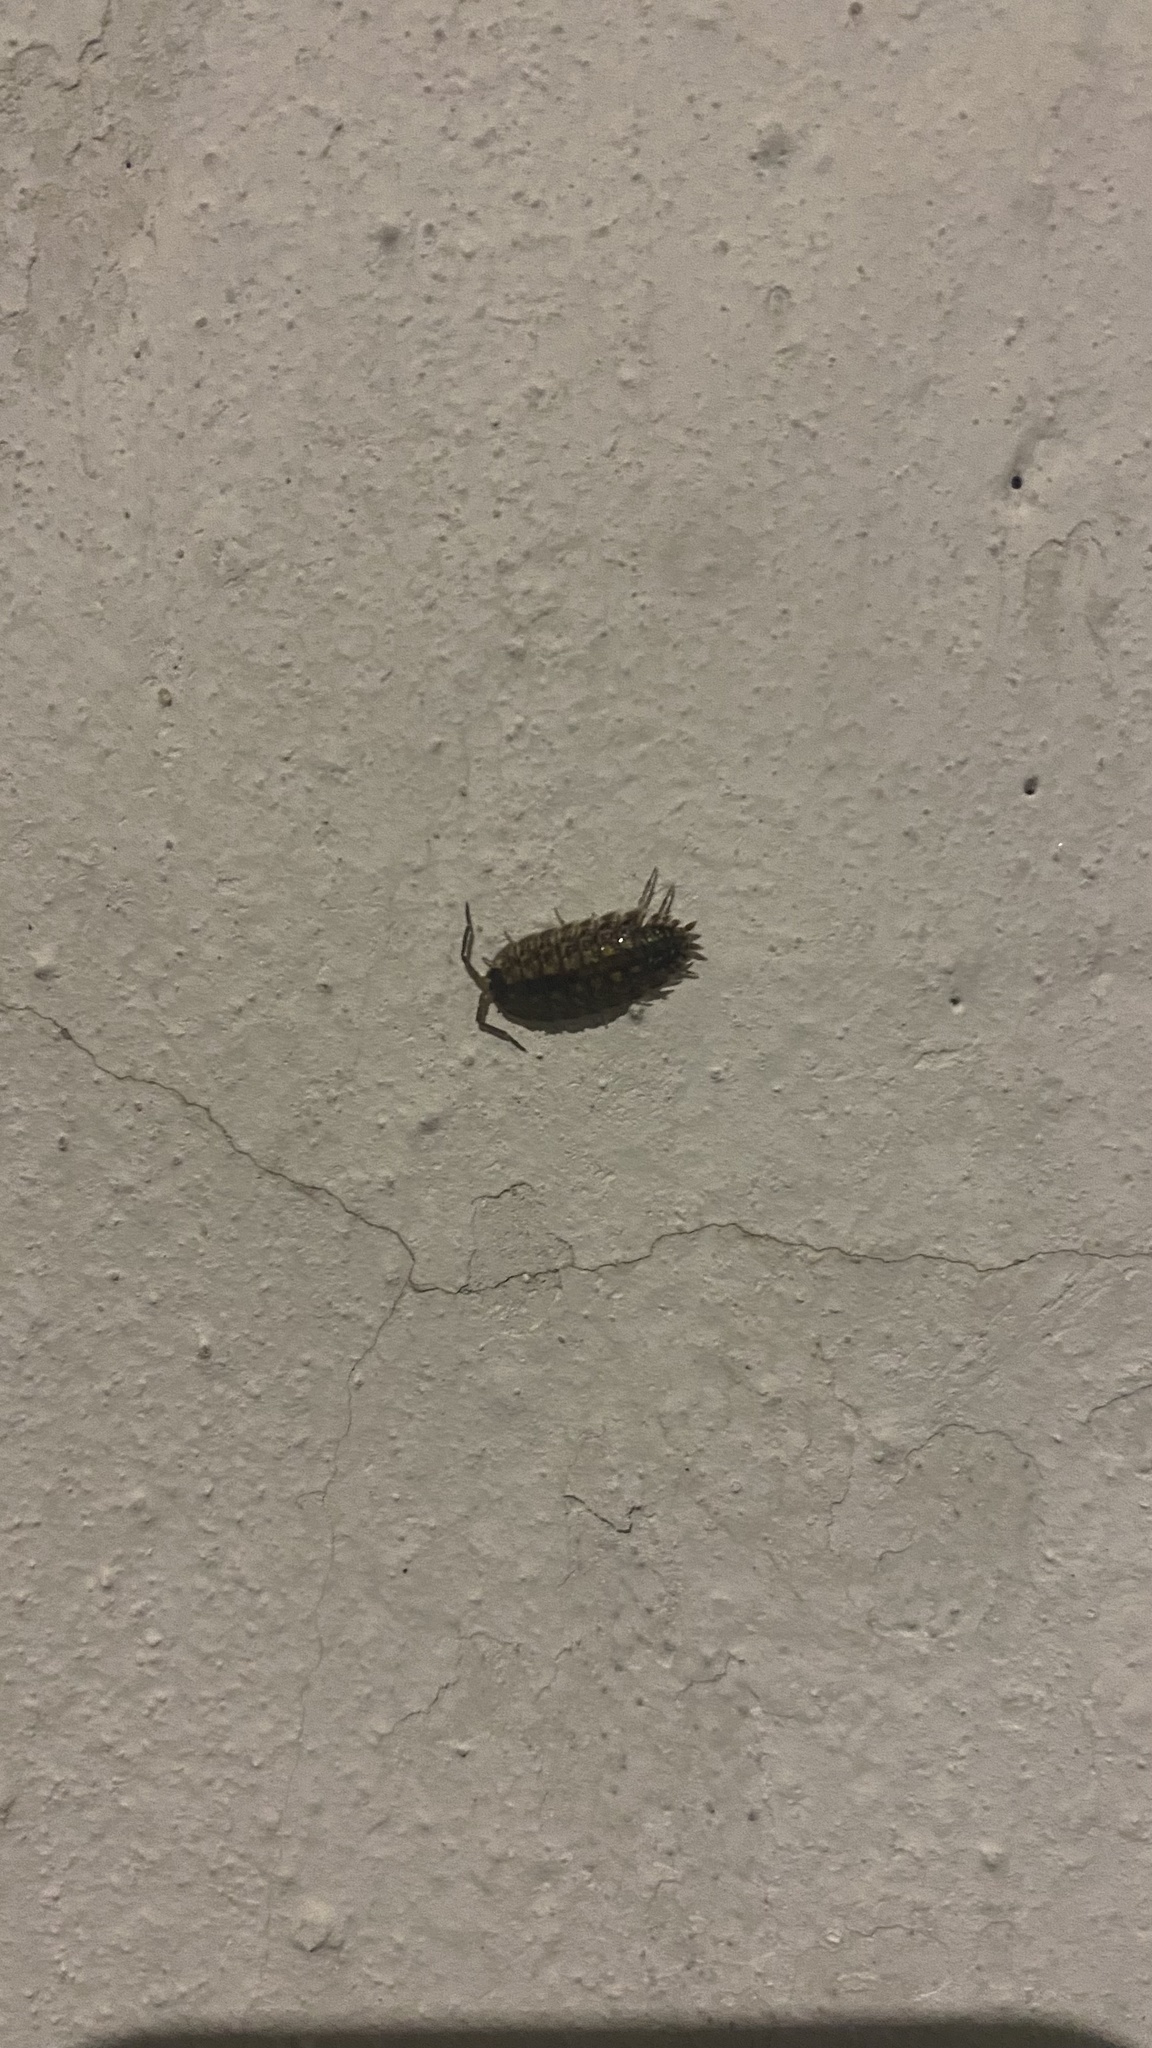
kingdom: Animalia
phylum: Arthropoda
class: Malacostraca
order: Isopoda
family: Porcellionidae
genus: Porcellio
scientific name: Porcellio spinicornis
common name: Painted woodlouse
